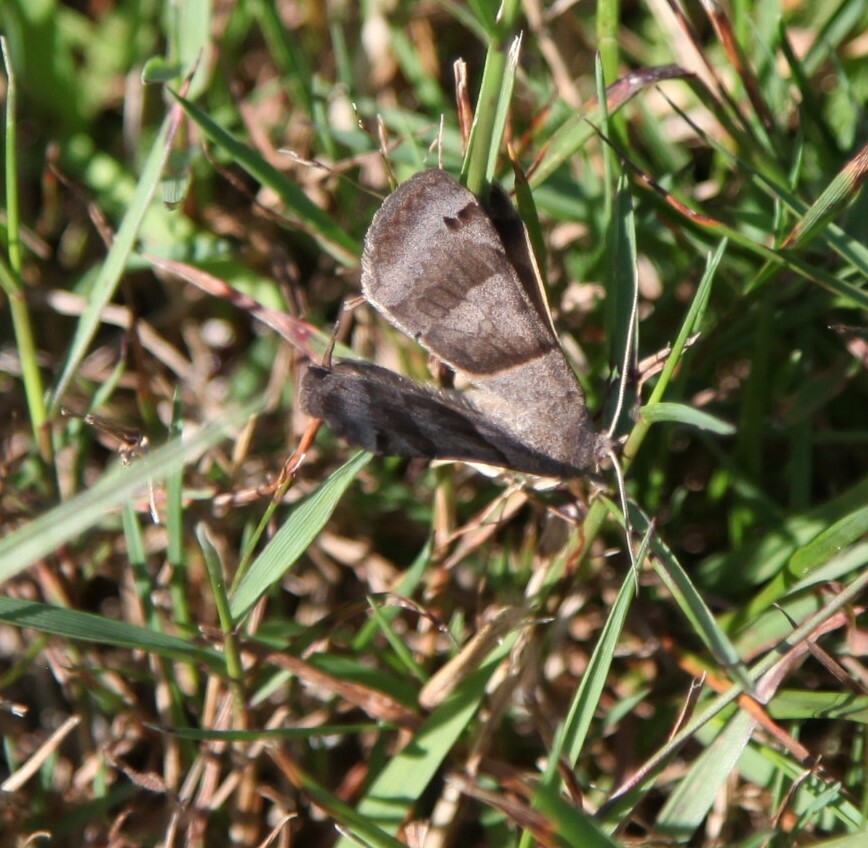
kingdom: Animalia
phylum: Arthropoda
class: Insecta
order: Lepidoptera
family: Erebidae
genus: Caenurgina
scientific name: Caenurgina crassiuscula
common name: Double-barred
